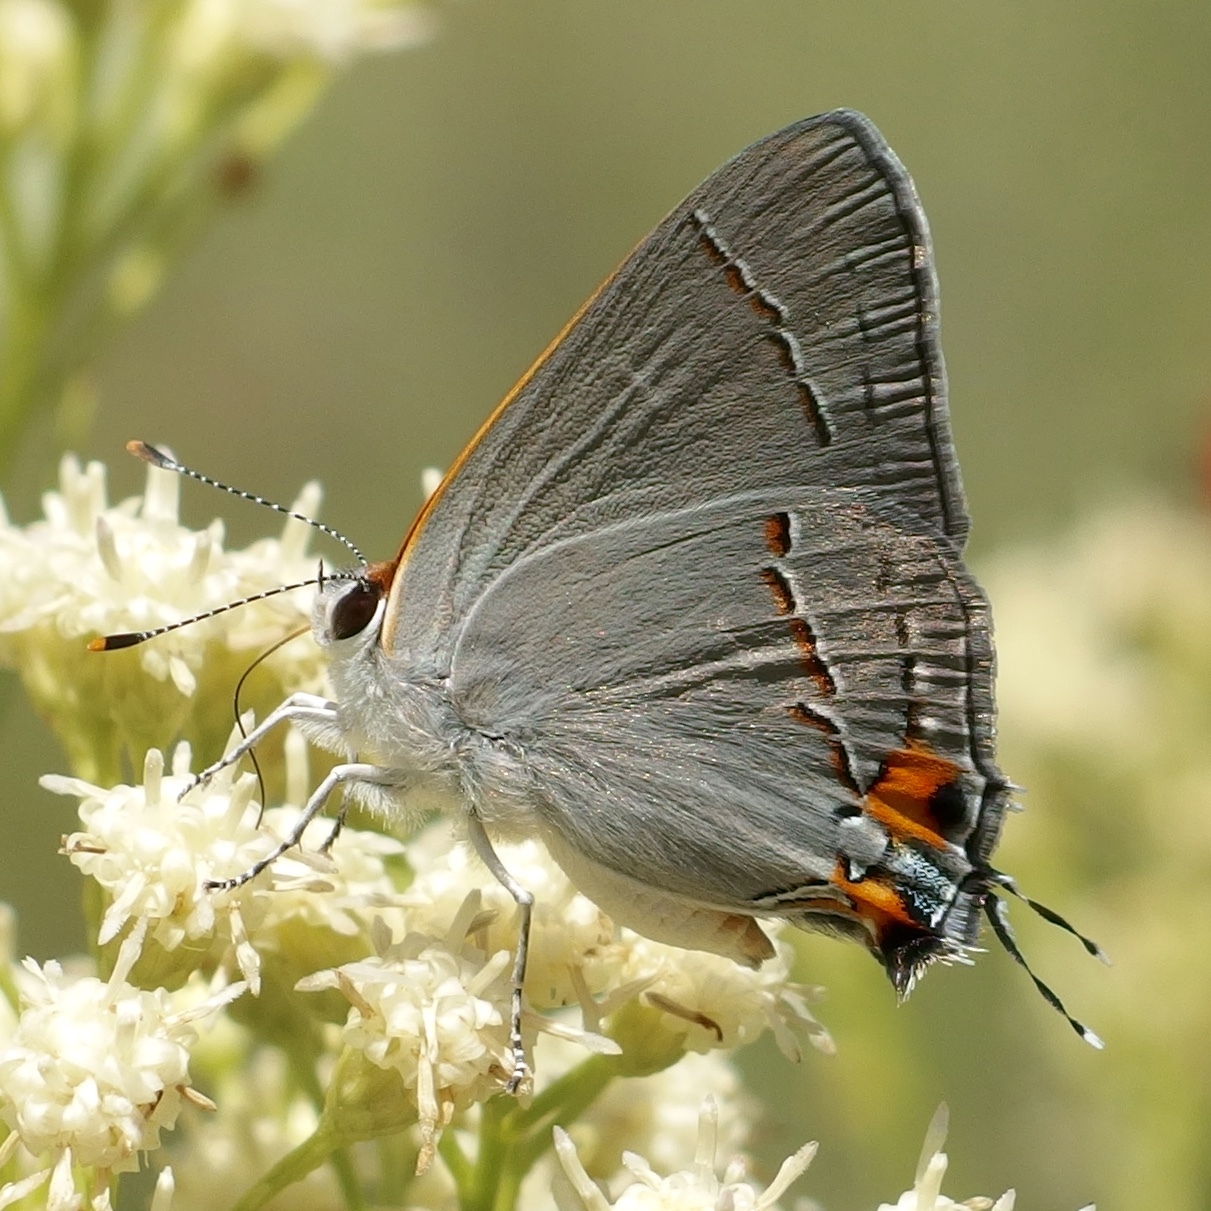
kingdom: Animalia
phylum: Arthropoda
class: Insecta
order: Lepidoptera
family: Lycaenidae
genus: Strymon
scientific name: Strymon melinus
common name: Gray hairstreak
